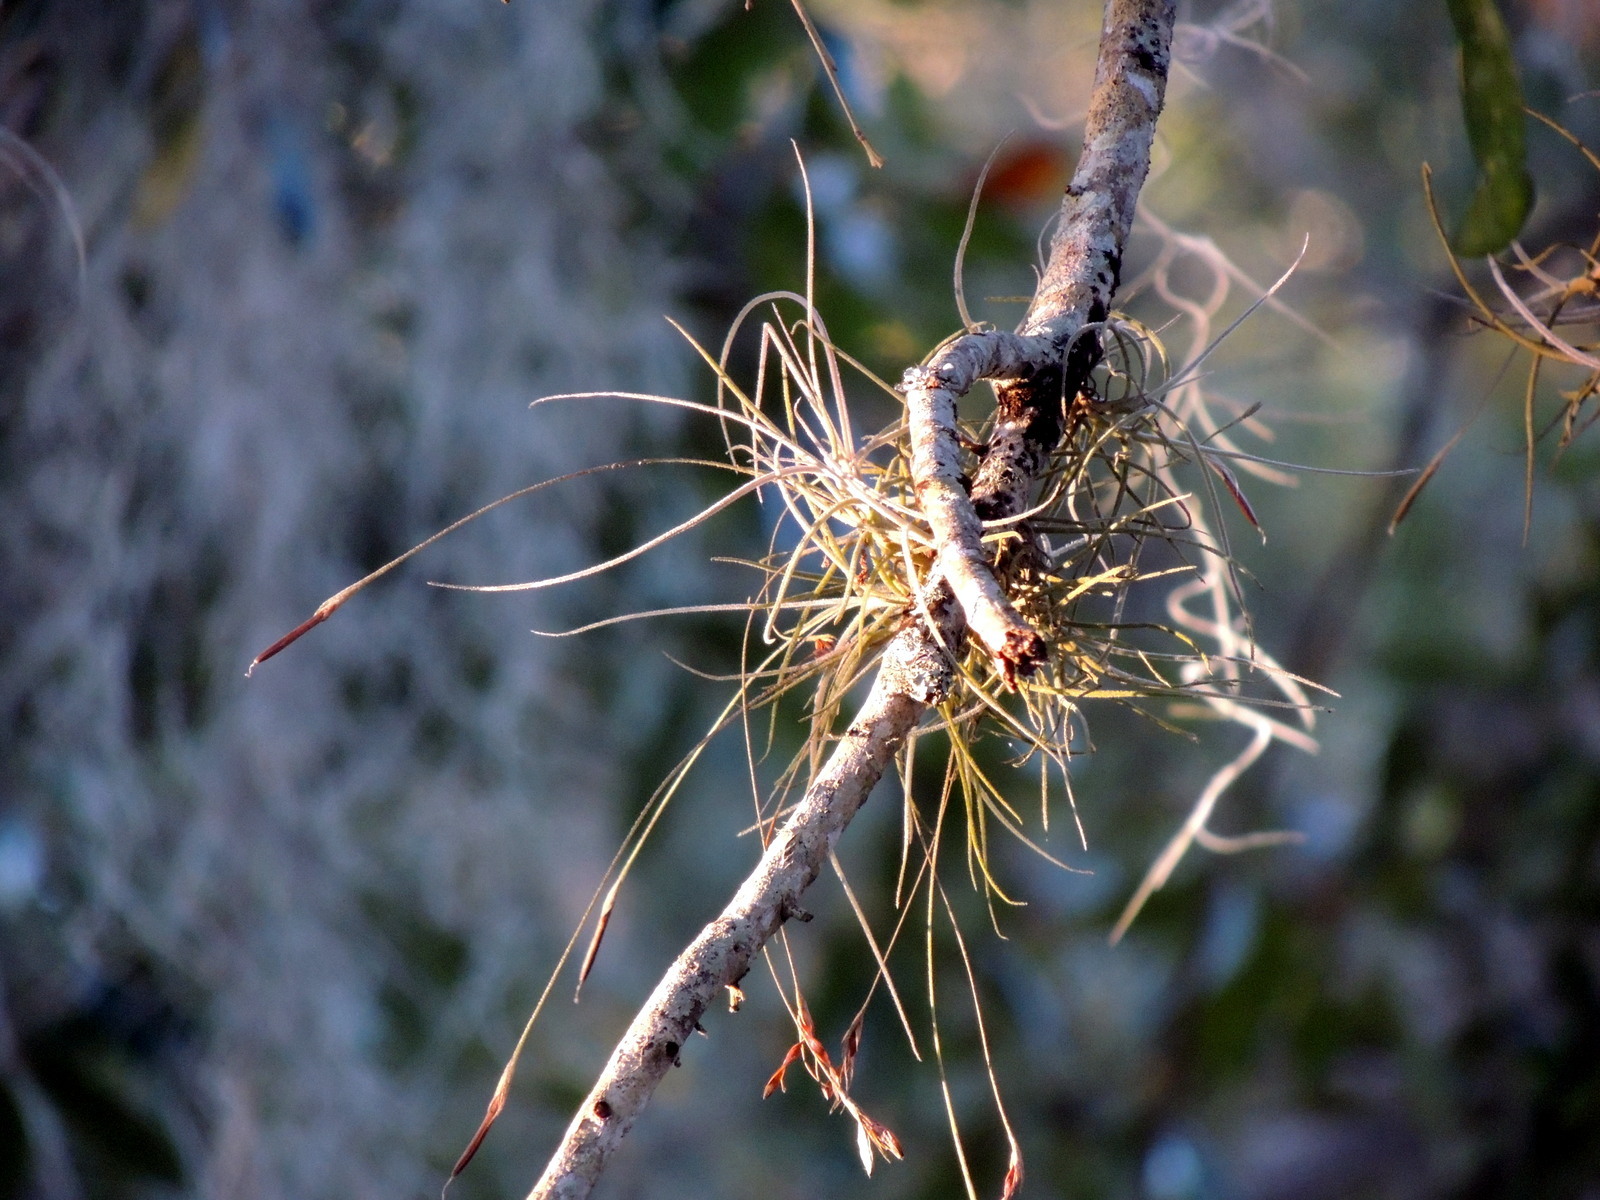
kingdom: Plantae
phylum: Tracheophyta
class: Liliopsida
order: Poales
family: Bromeliaceae
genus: Tillandsia
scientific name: Tillandsia recurvata
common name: Small ballmoss
